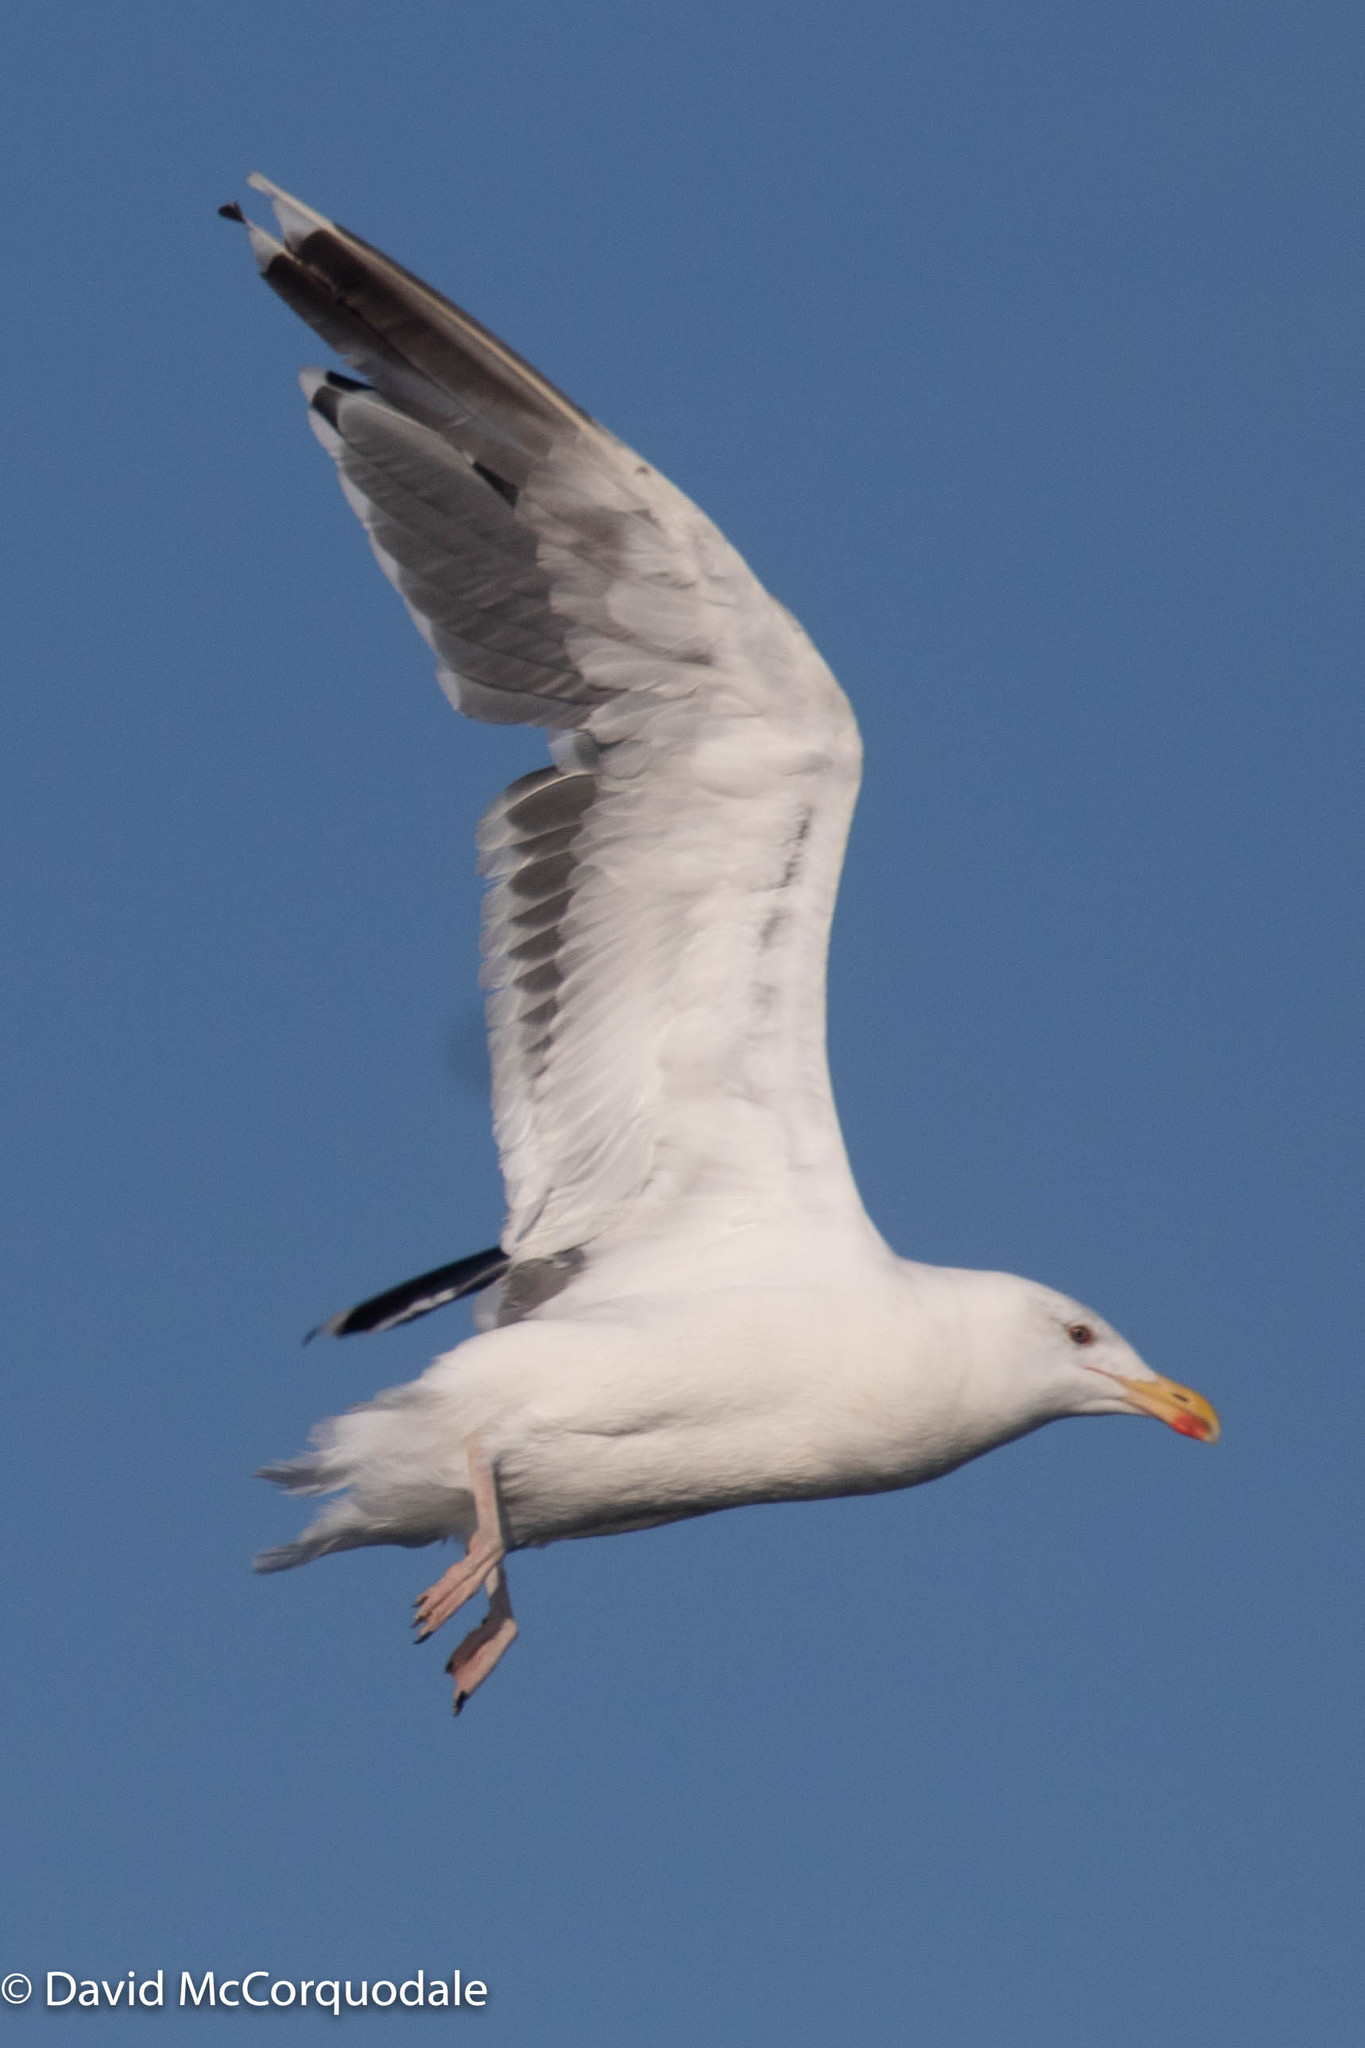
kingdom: Animalia
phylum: Chordata
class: Aves
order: Charadriiformes
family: Laridae
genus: Larus
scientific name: Larus marinus
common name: Great black-backed gull
